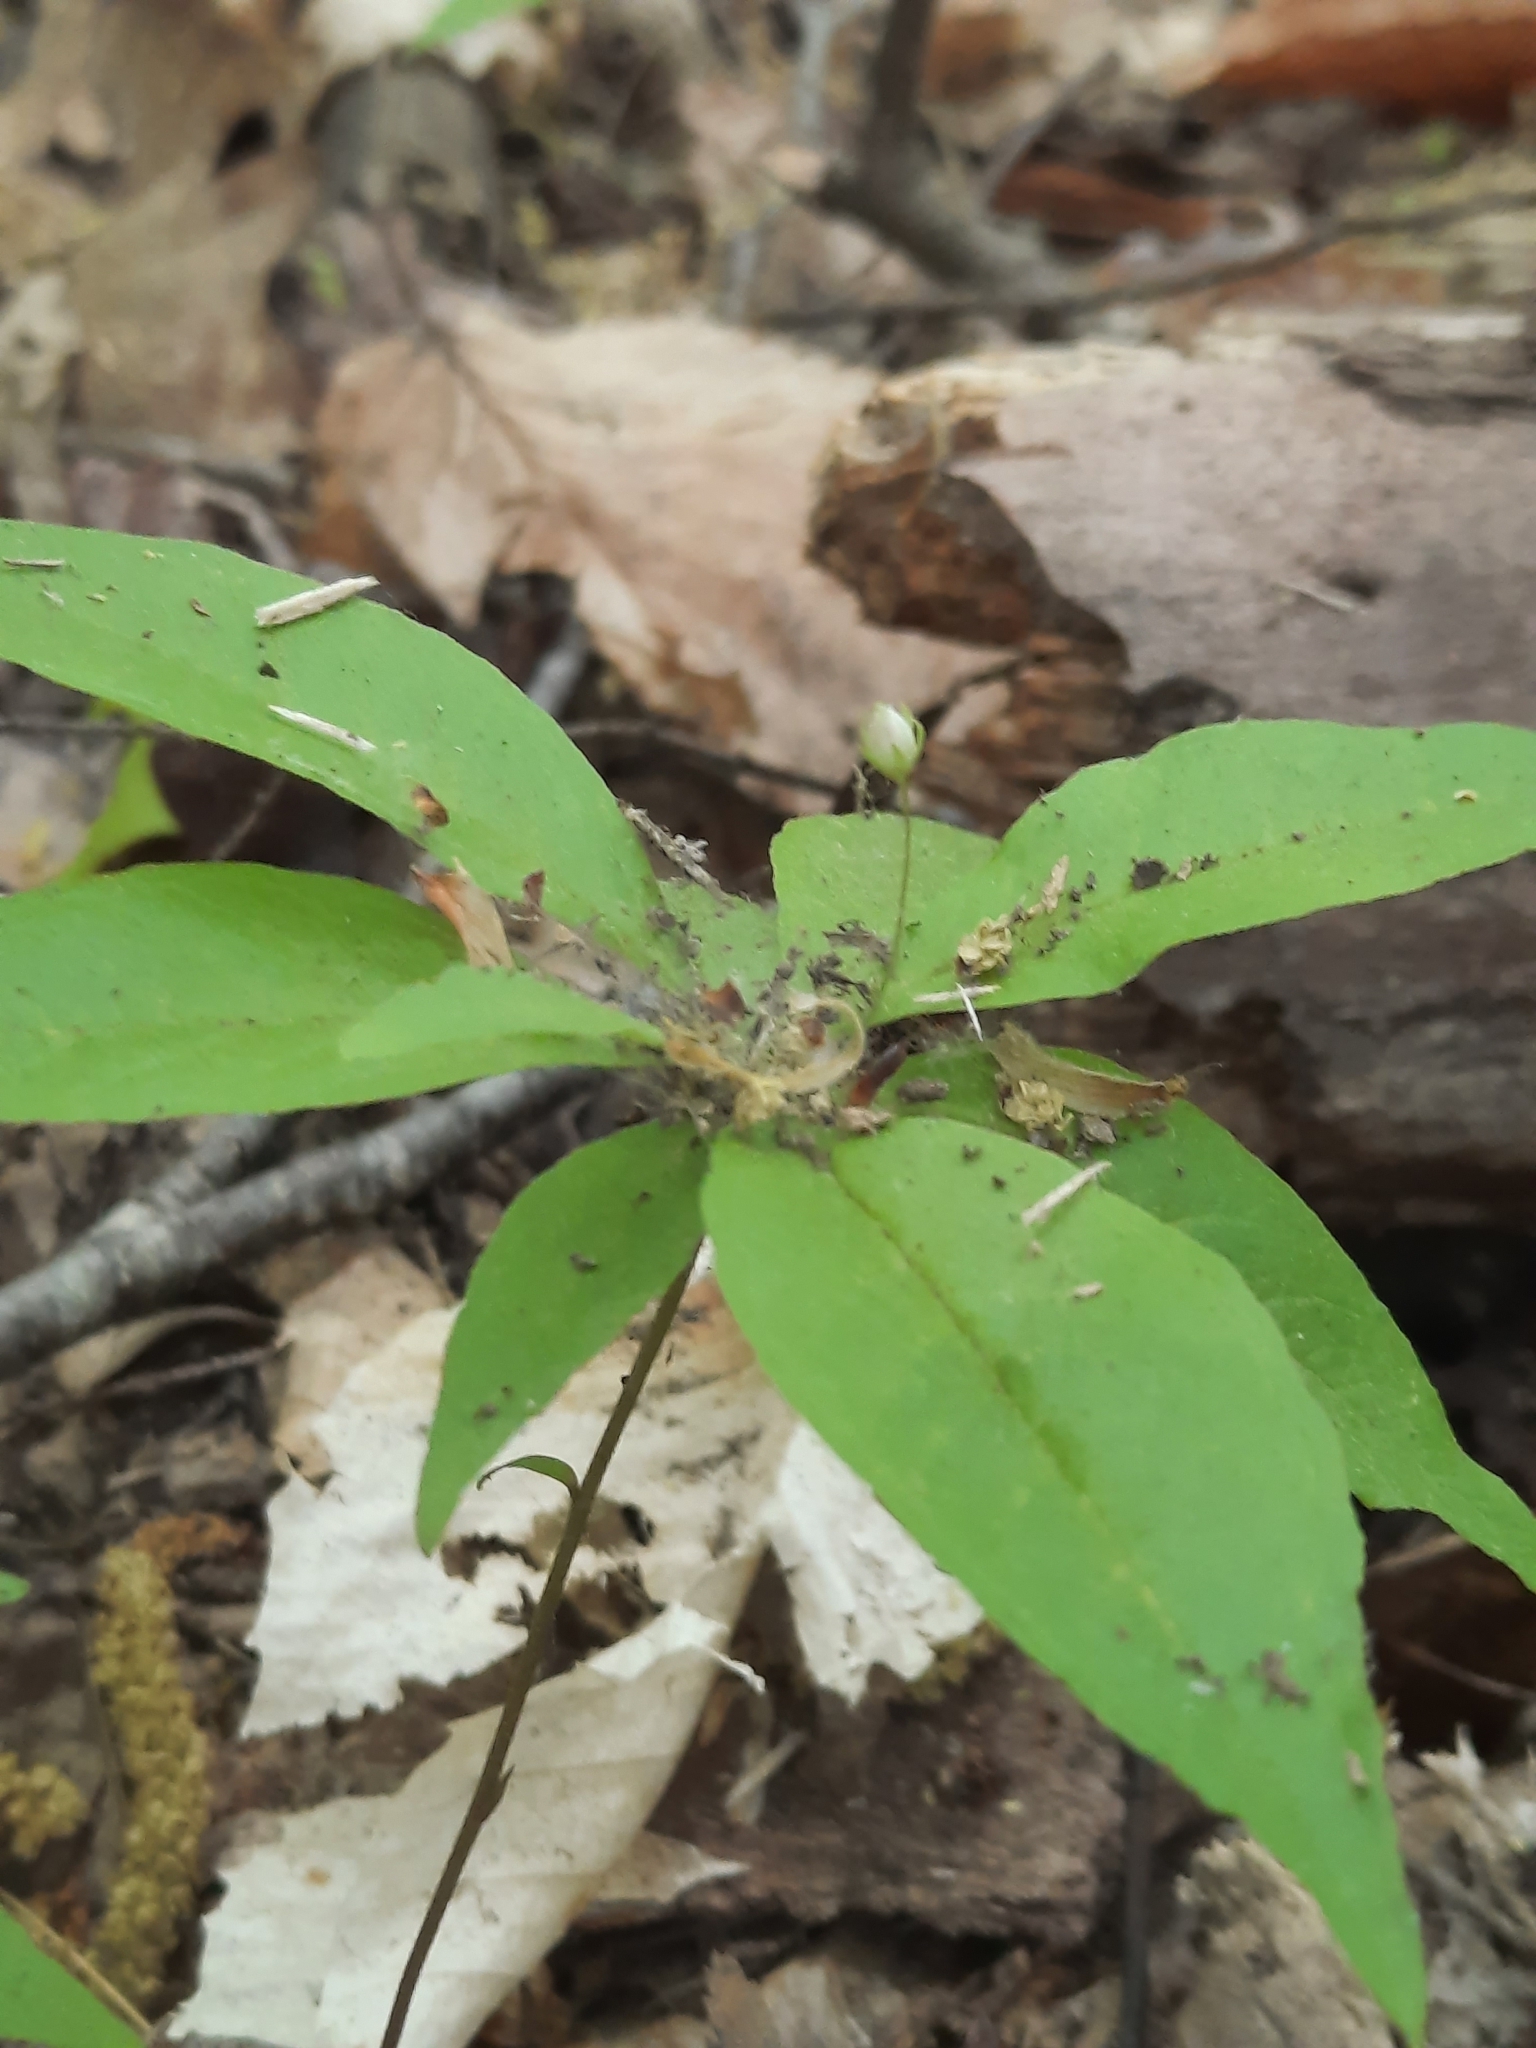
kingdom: Plantae
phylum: Tracheophyta
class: Magnoliopsida
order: Ericales
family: Primulaceae
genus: Lysimachia
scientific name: Lysimachia borealis
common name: American starflower
